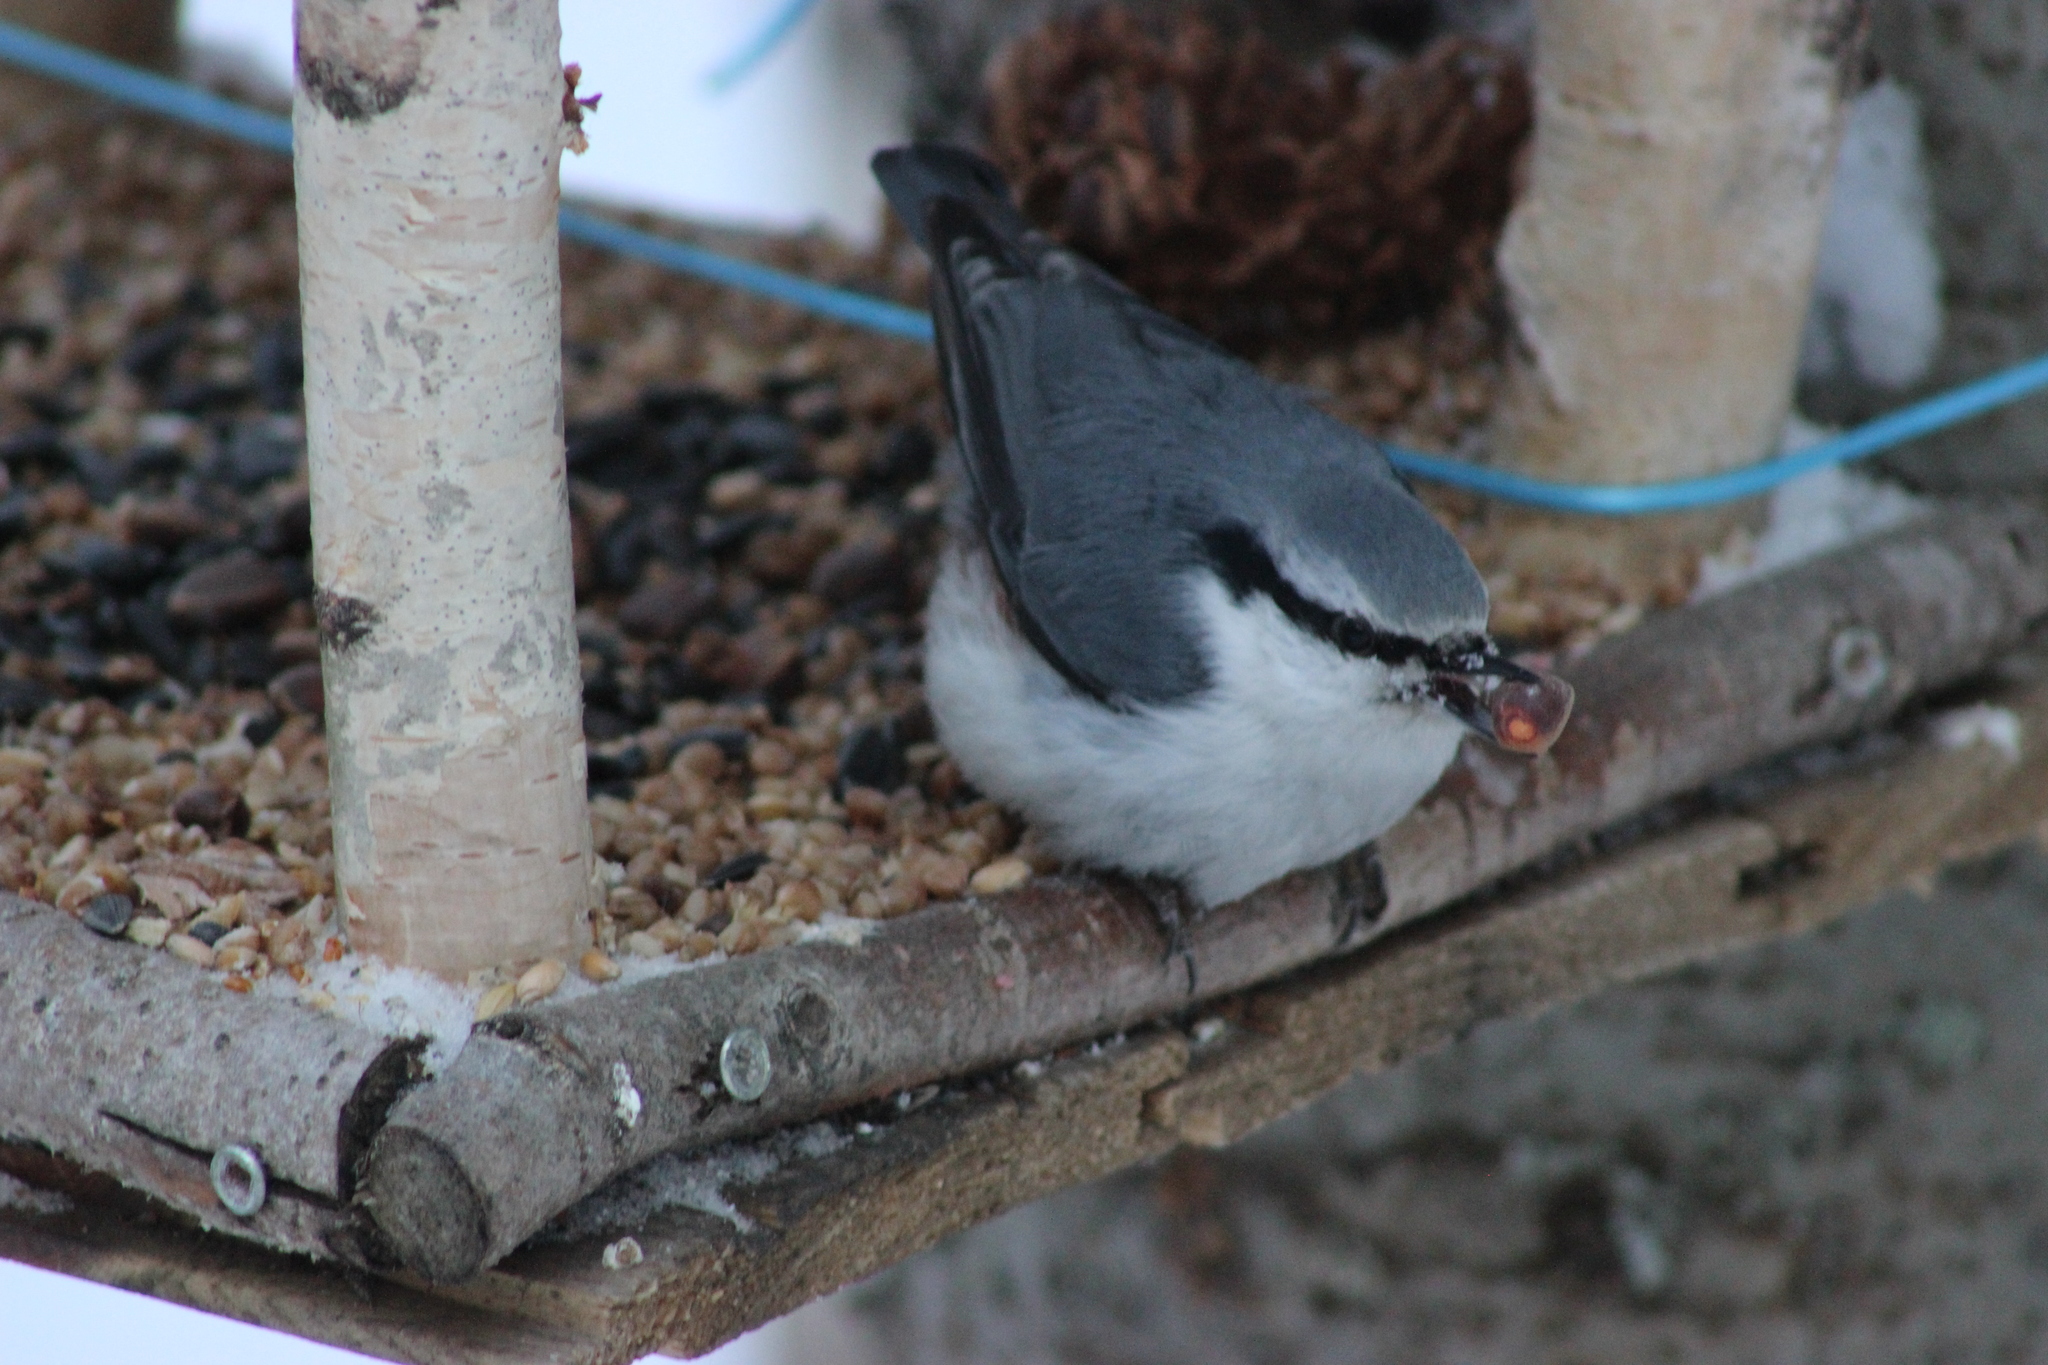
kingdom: Animalia
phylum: Chordata
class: Aves
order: Passeriformes
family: Sittidae
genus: Sitta
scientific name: Sitta europaea
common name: Eurasian nuthatch
